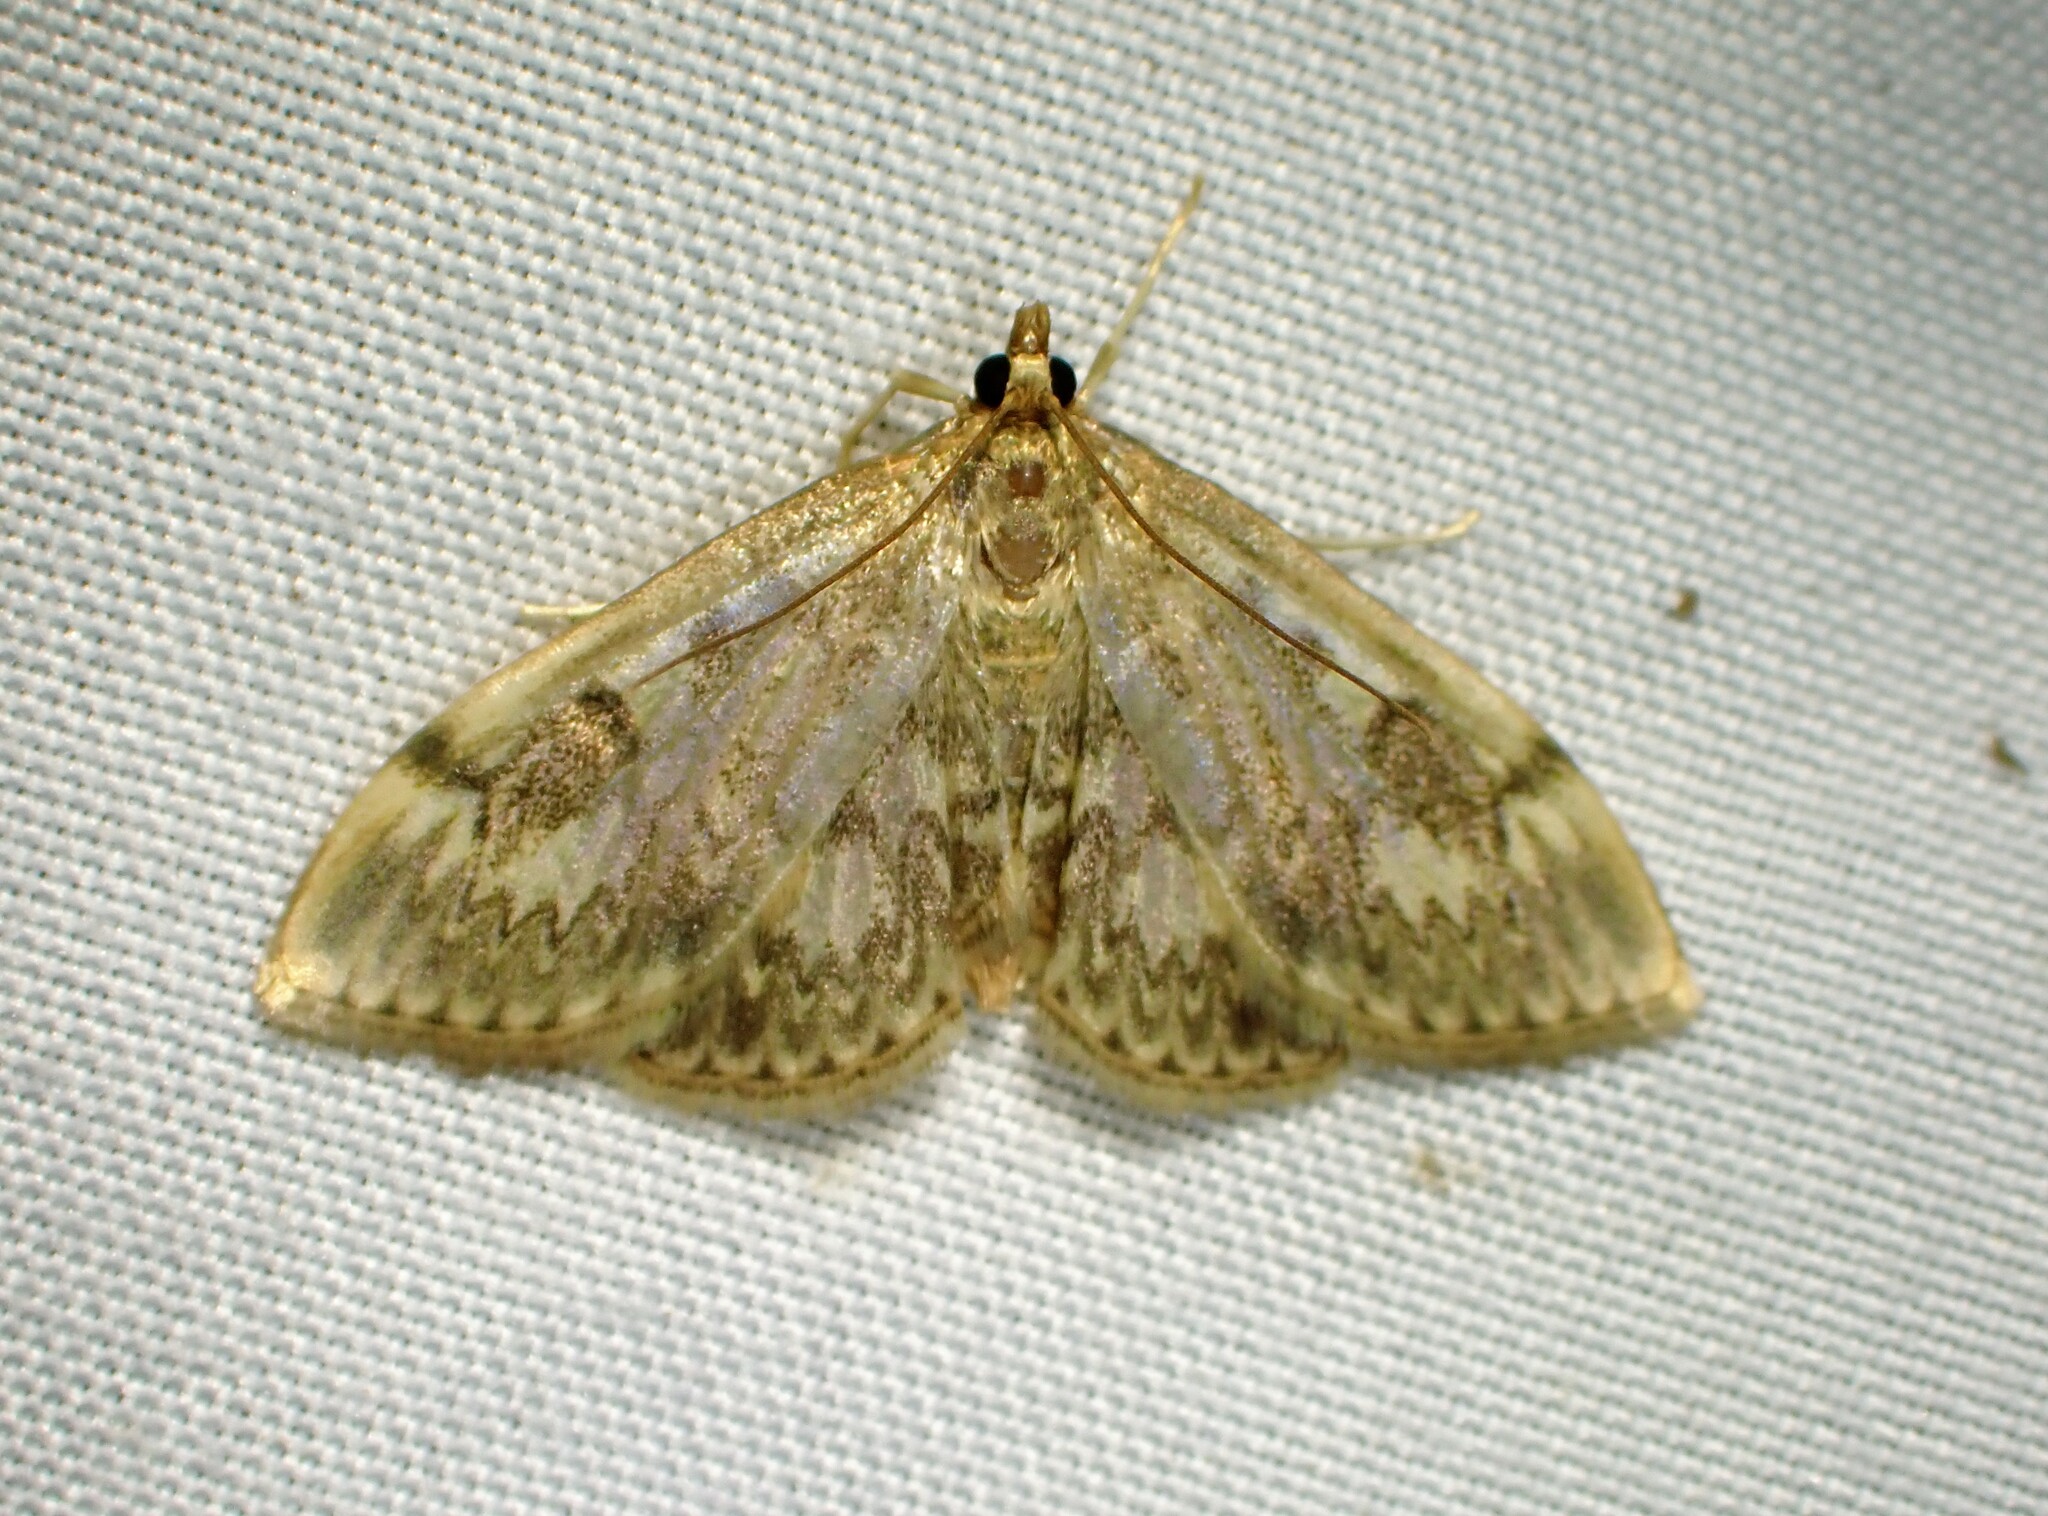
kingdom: Animalia
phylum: Arthropoda
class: Insecta
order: Lepidoptera
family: Crambidae
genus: Anania
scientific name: Anania
